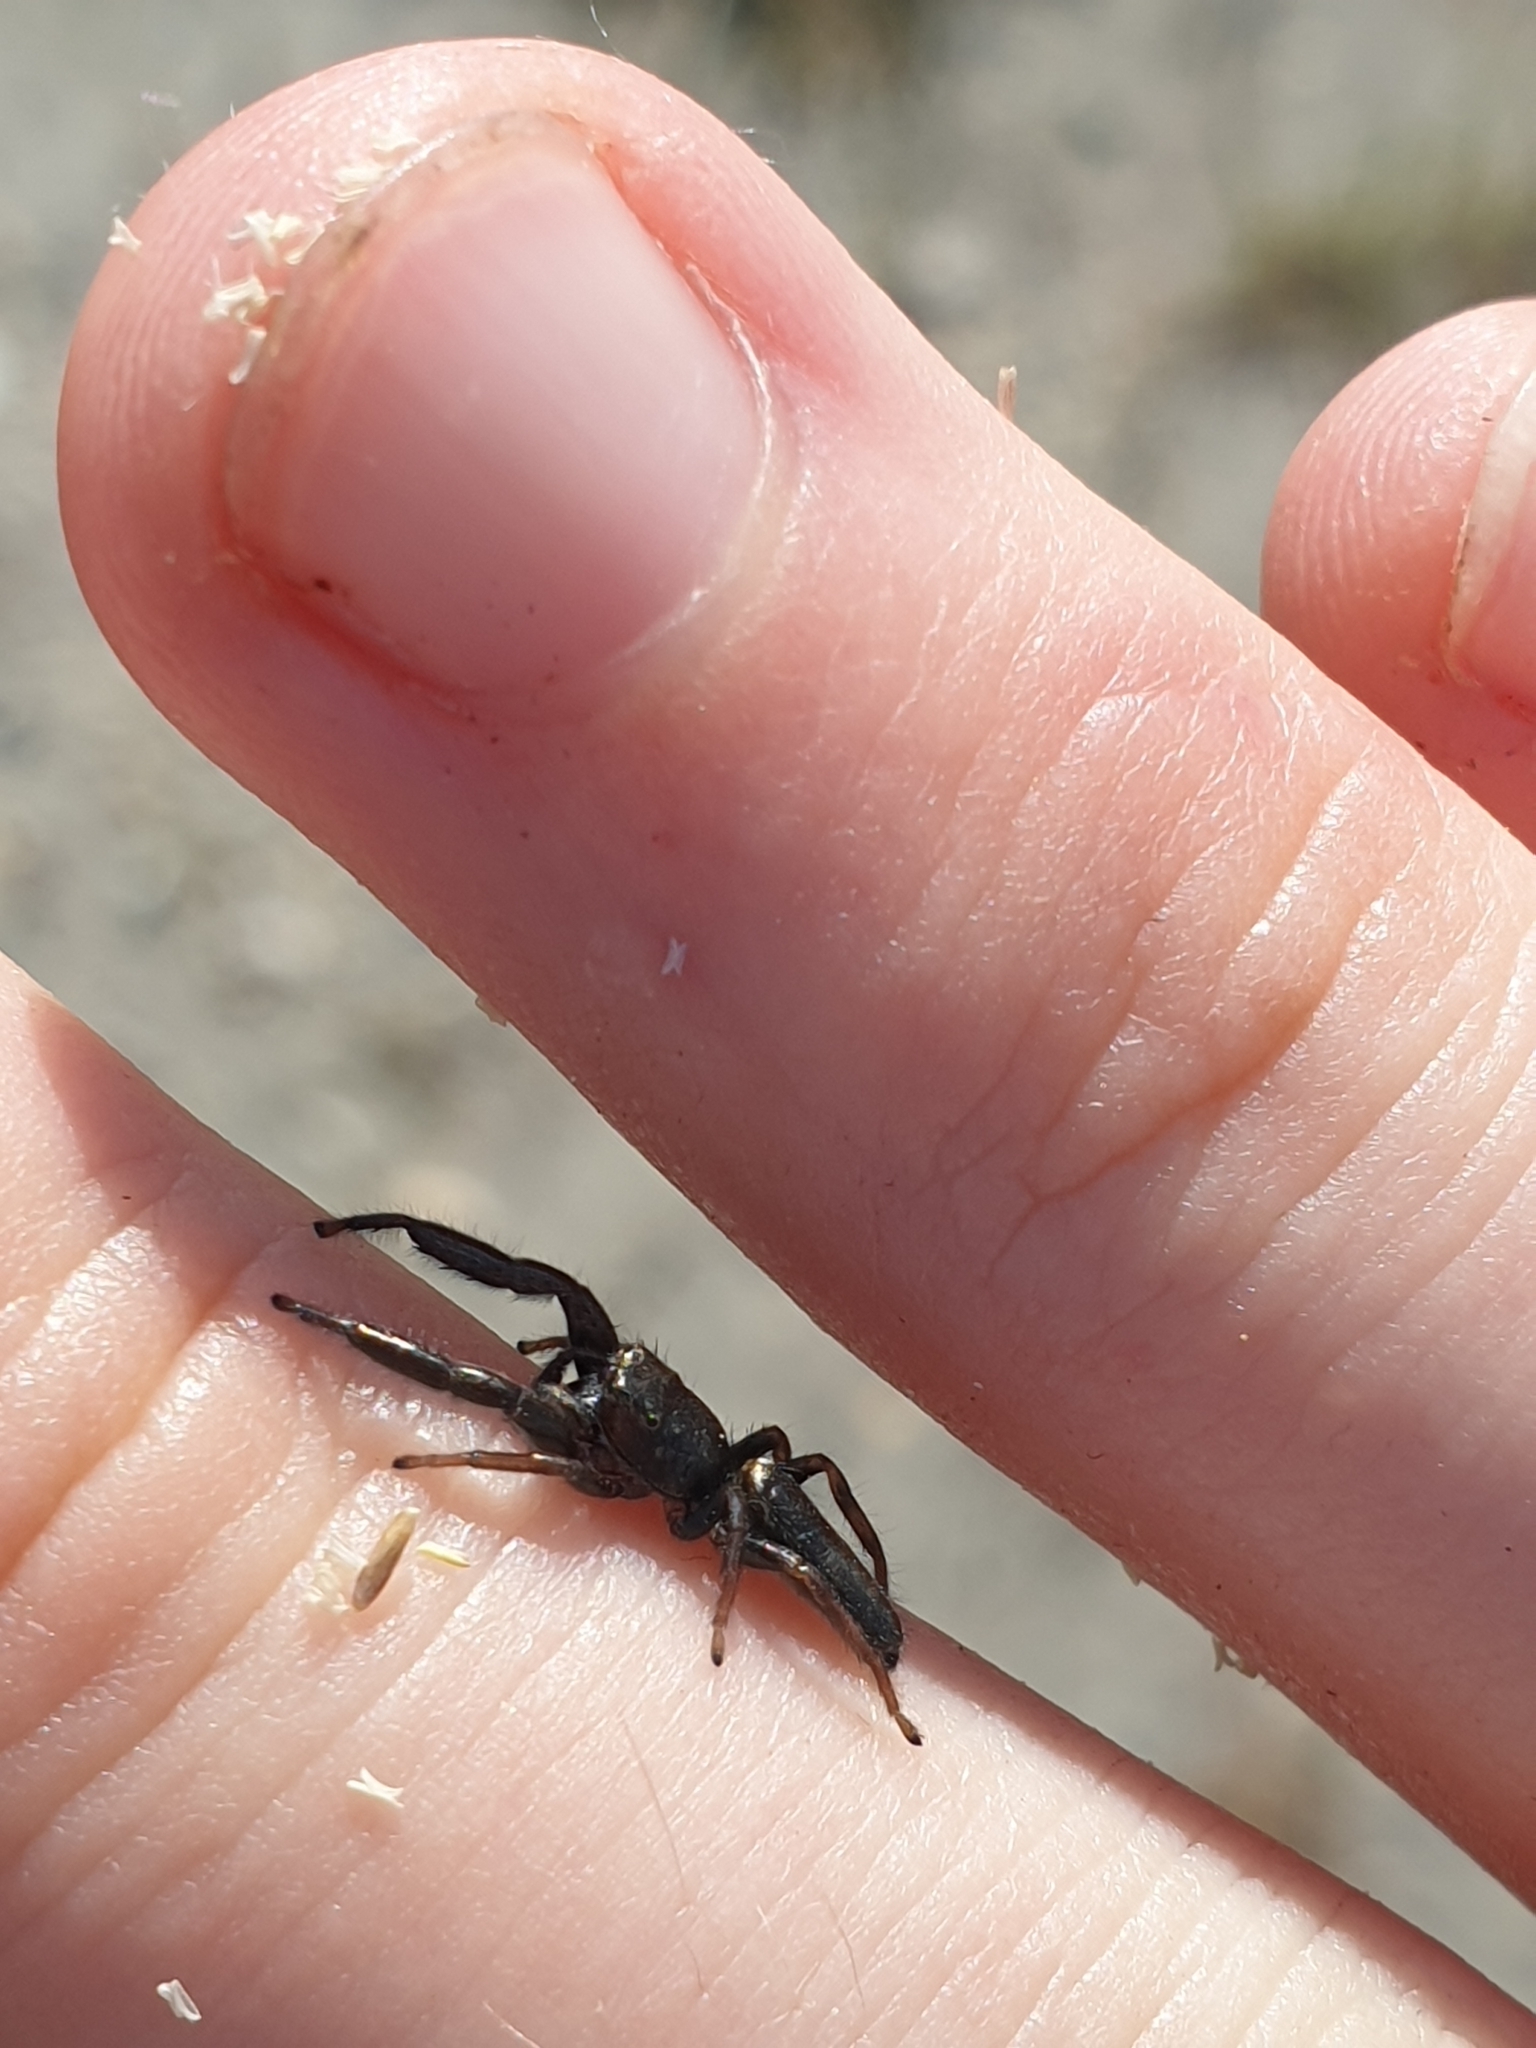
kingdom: Animalia
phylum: Arthropoda
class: Arachnida
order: Araneae
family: Salticidae
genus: Mendoza
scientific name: Mendoza canestrinii
